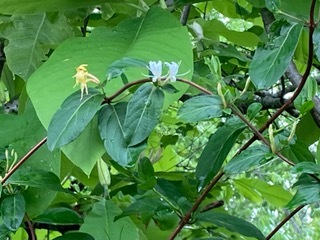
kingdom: Plantae
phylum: Tracheophyta
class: Magnoliopsida
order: Dipsacales
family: Caprifoliaceae
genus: Lonicera
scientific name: Lonicera japonica
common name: Japanese honeysuckle
